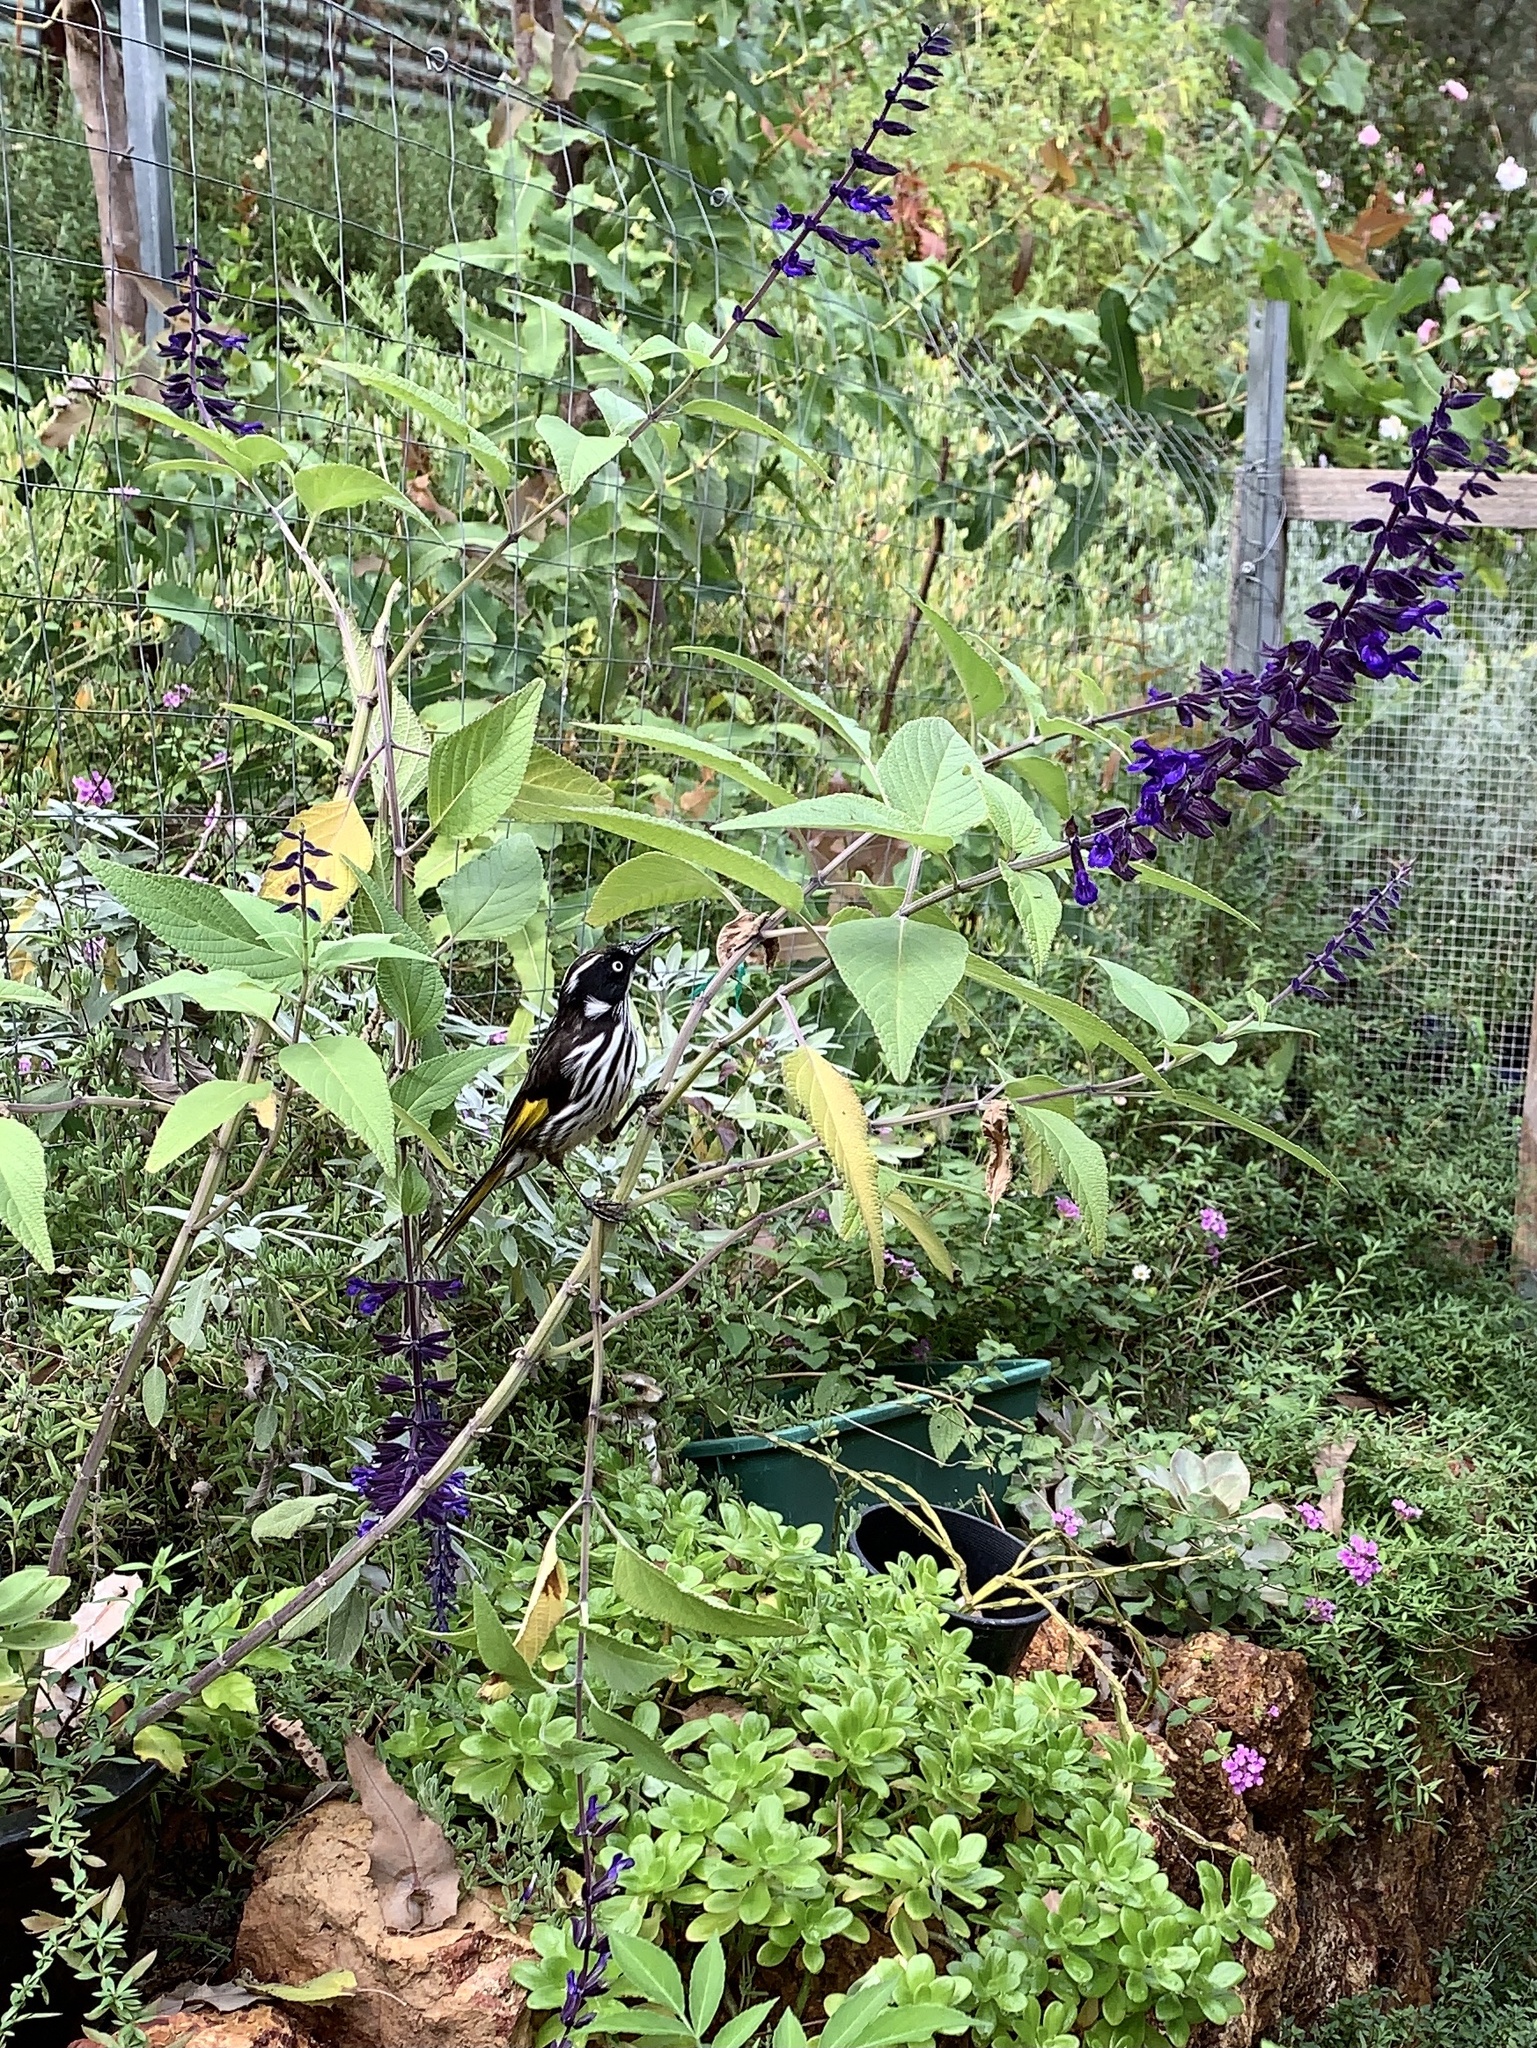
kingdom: Animalia
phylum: Chordata
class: Aves
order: Passeriformes
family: Meliphagidae
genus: Phylidonyris
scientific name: Phylidonyris novaehollandiae
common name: New holland honeyeater
